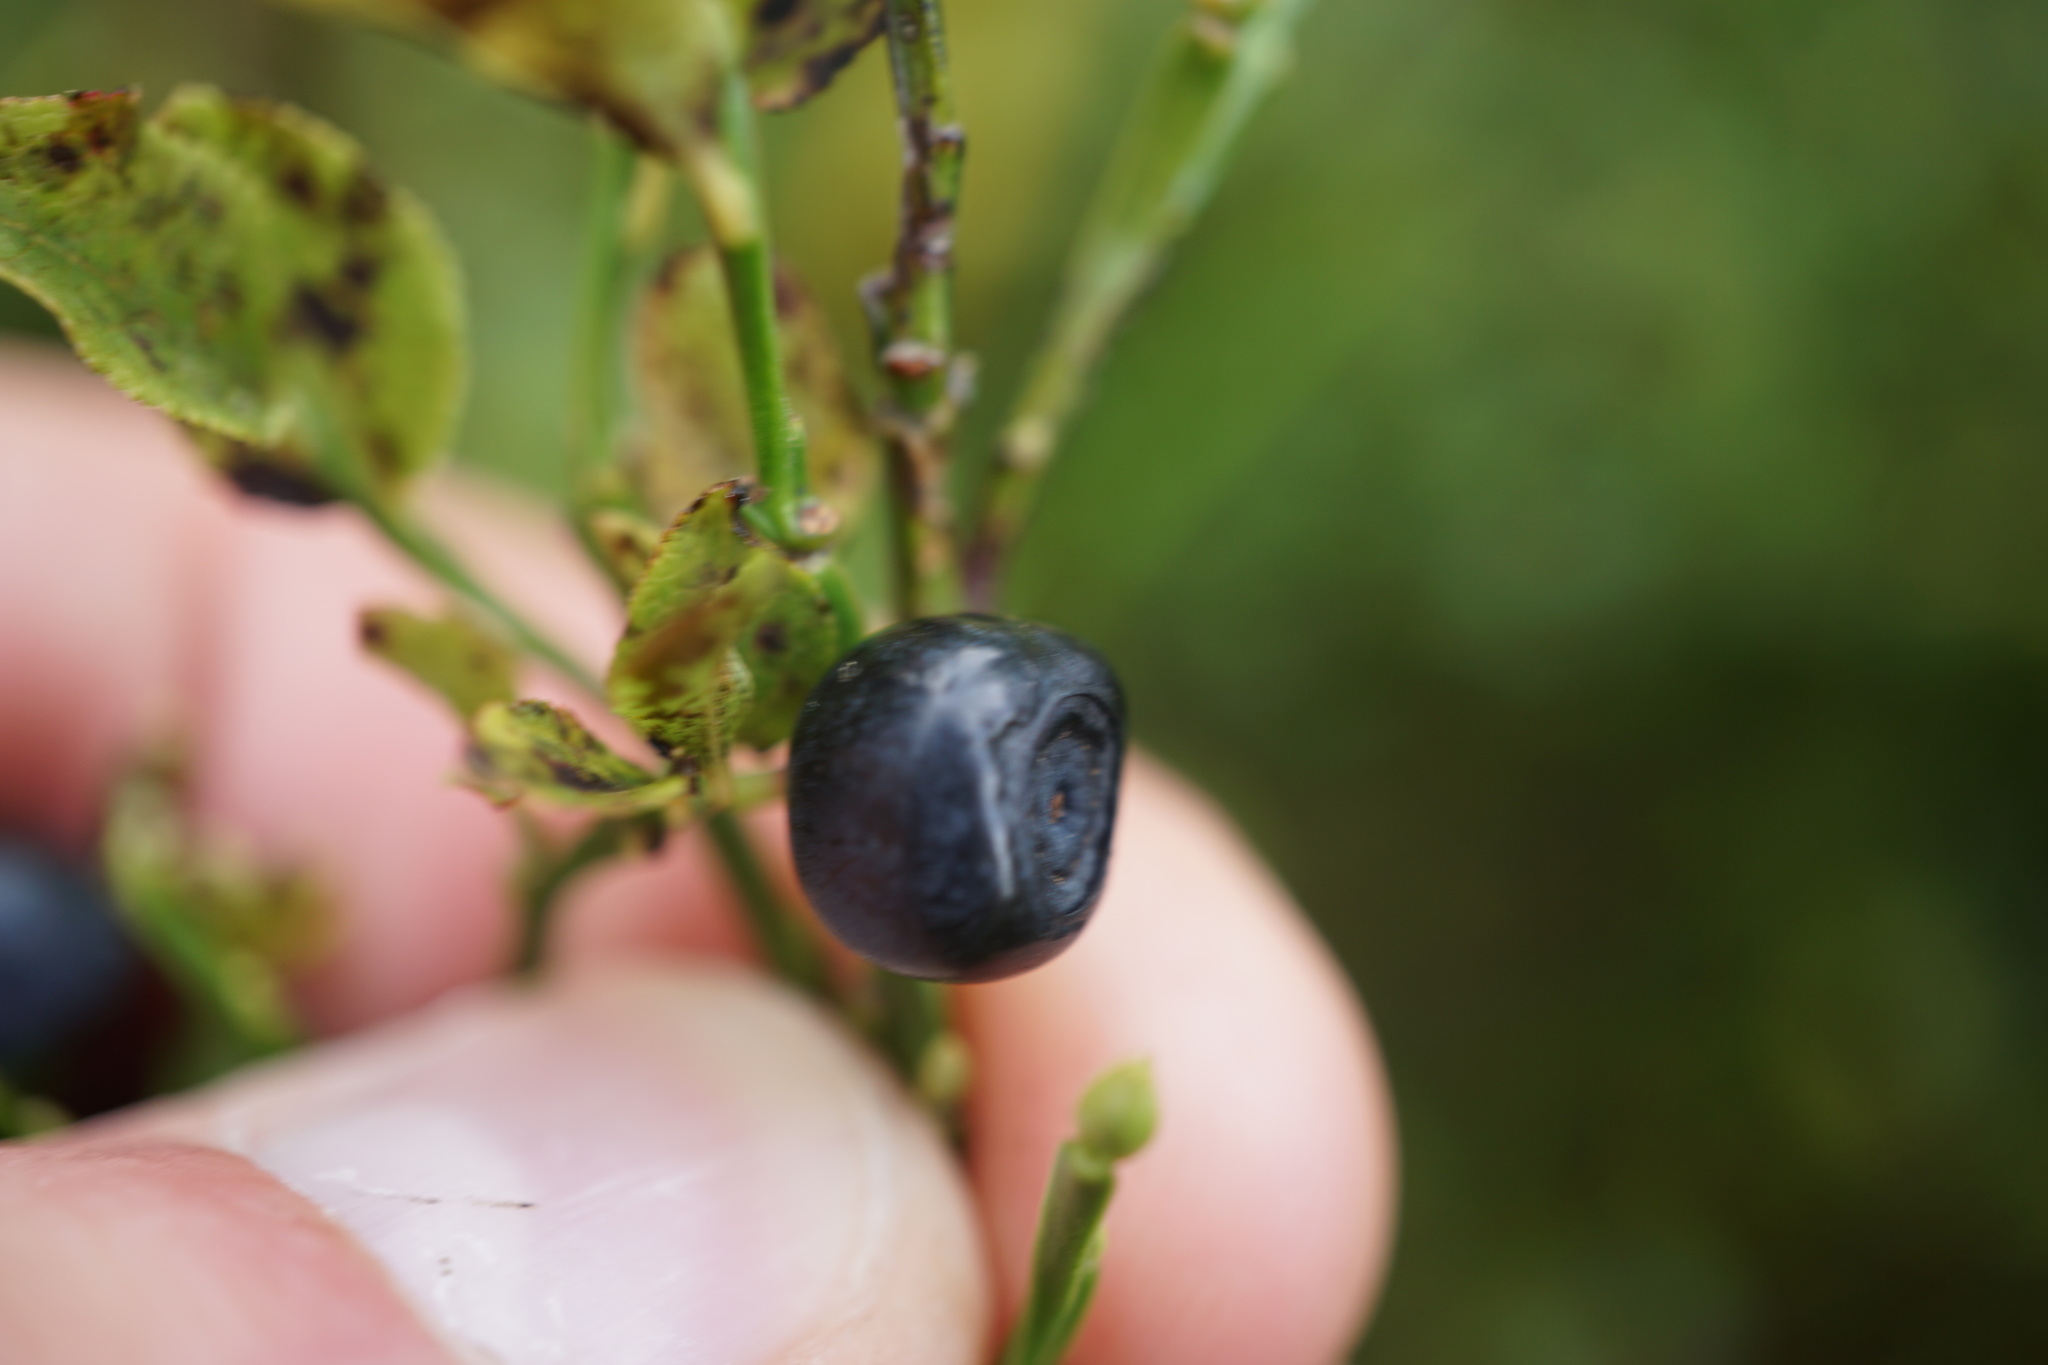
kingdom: Plantae
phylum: Tracheophyta
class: Magnoliopsida
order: Ericales
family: Ericaceae
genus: Vaccinium
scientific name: Vaccinium myrtillus
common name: Bilberry
